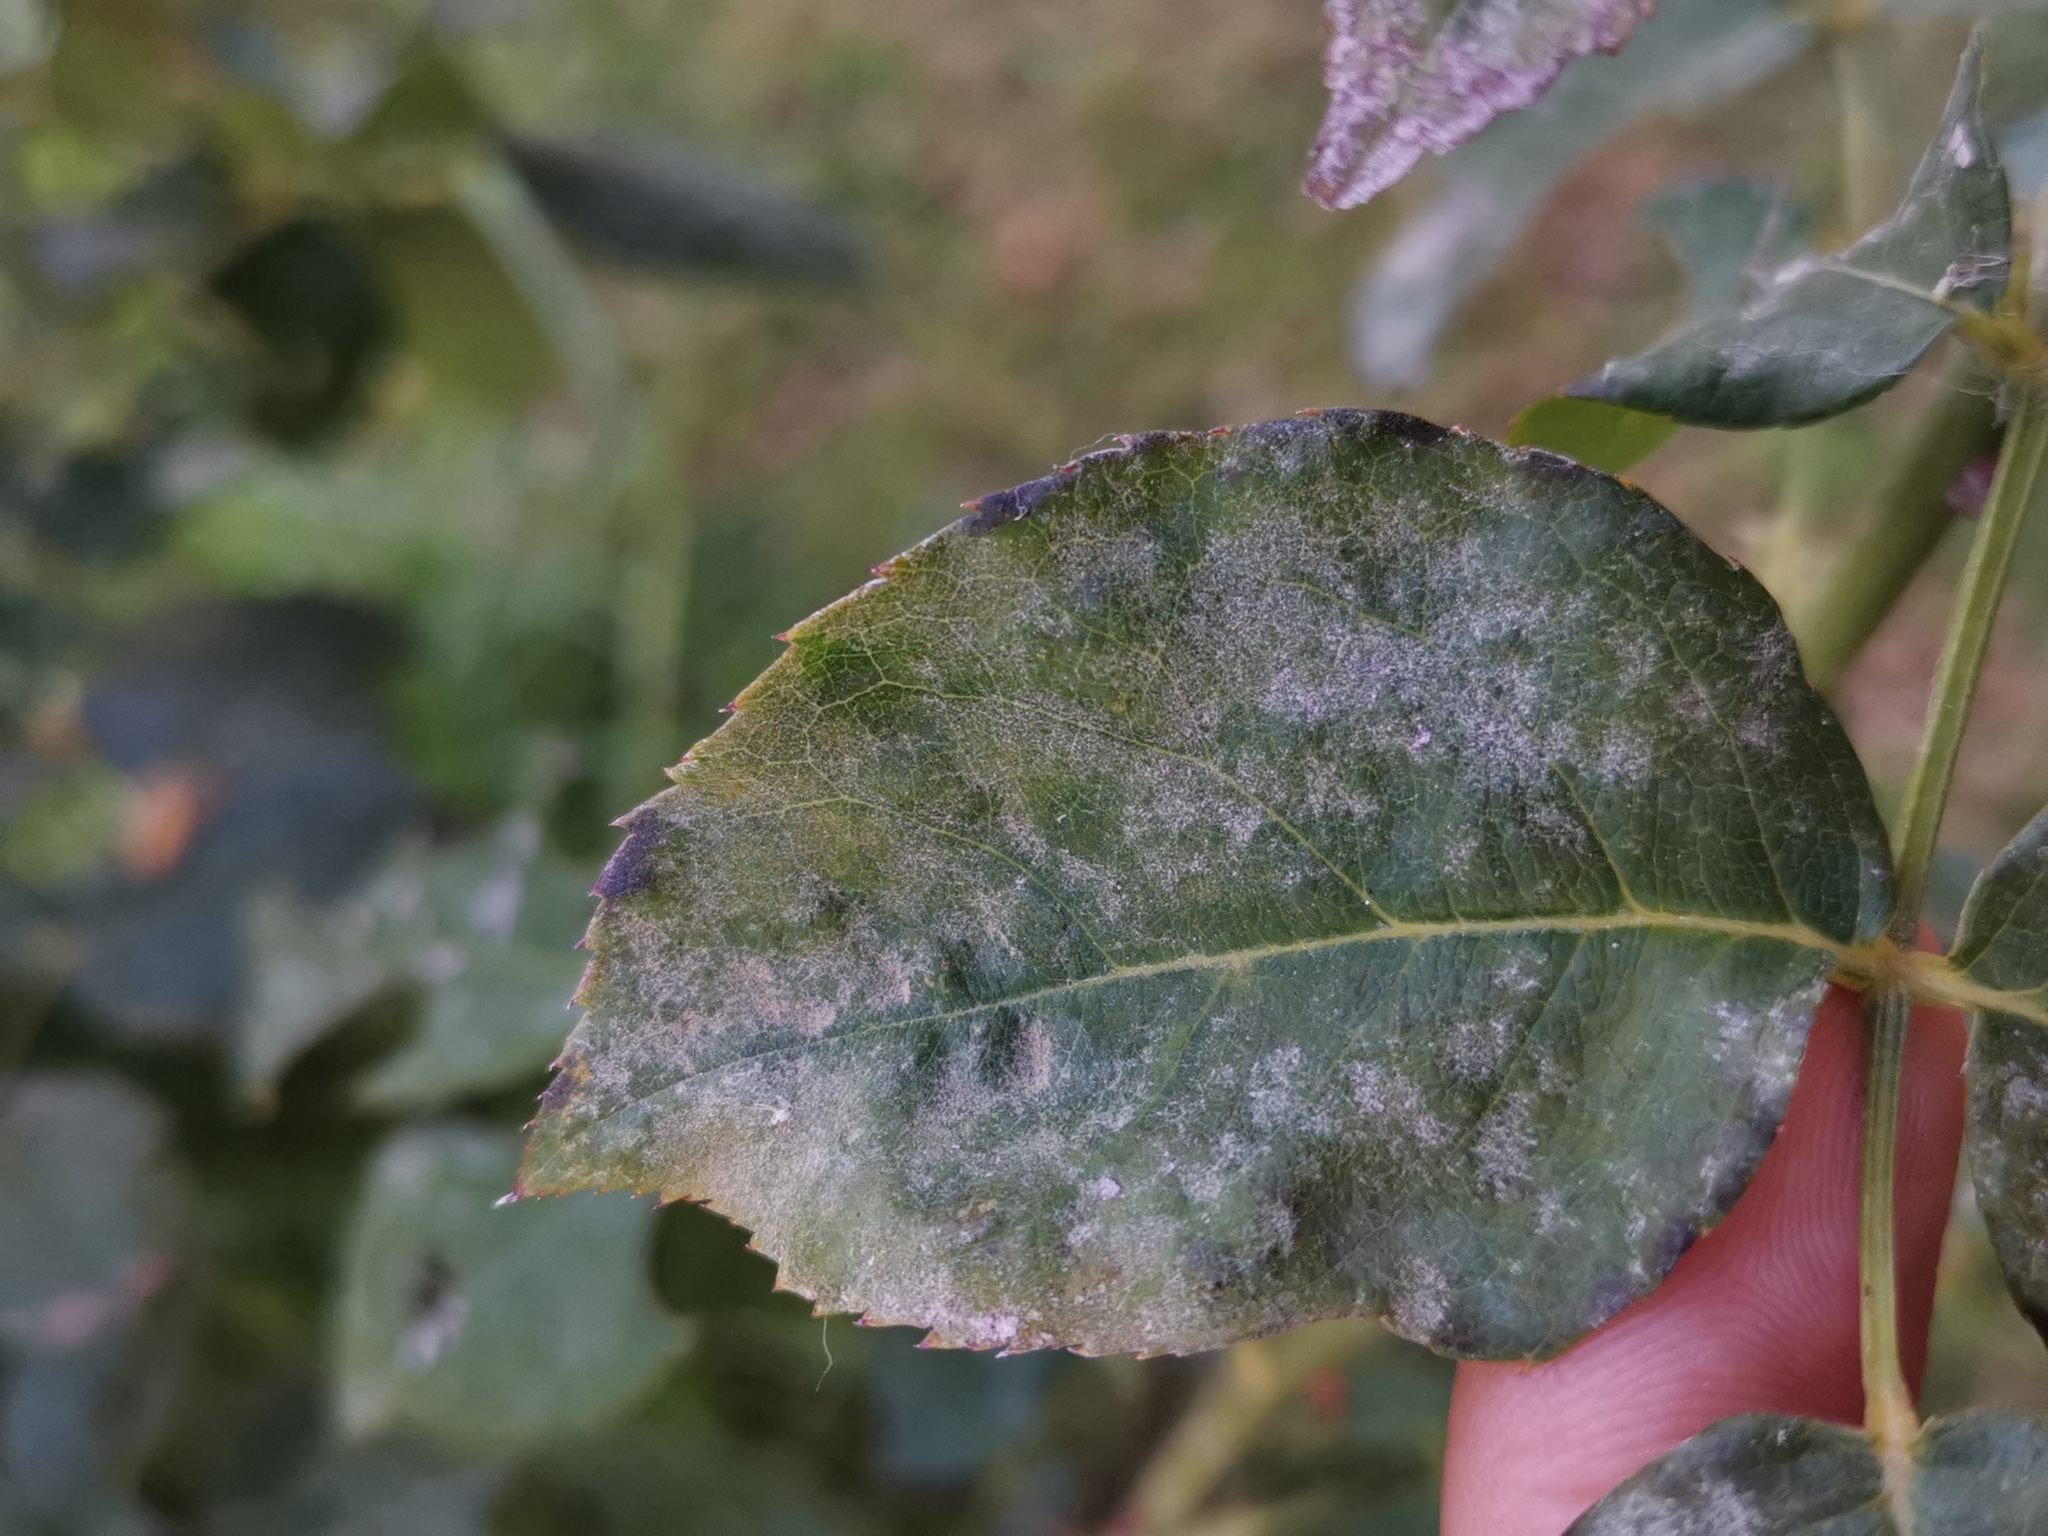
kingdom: Fungi
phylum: Ascomycota
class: Leotiomycetes
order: Helotiales
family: Erysiphaceae
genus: Podosphaera
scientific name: Podosphaera pannosa
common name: Rose mildew
